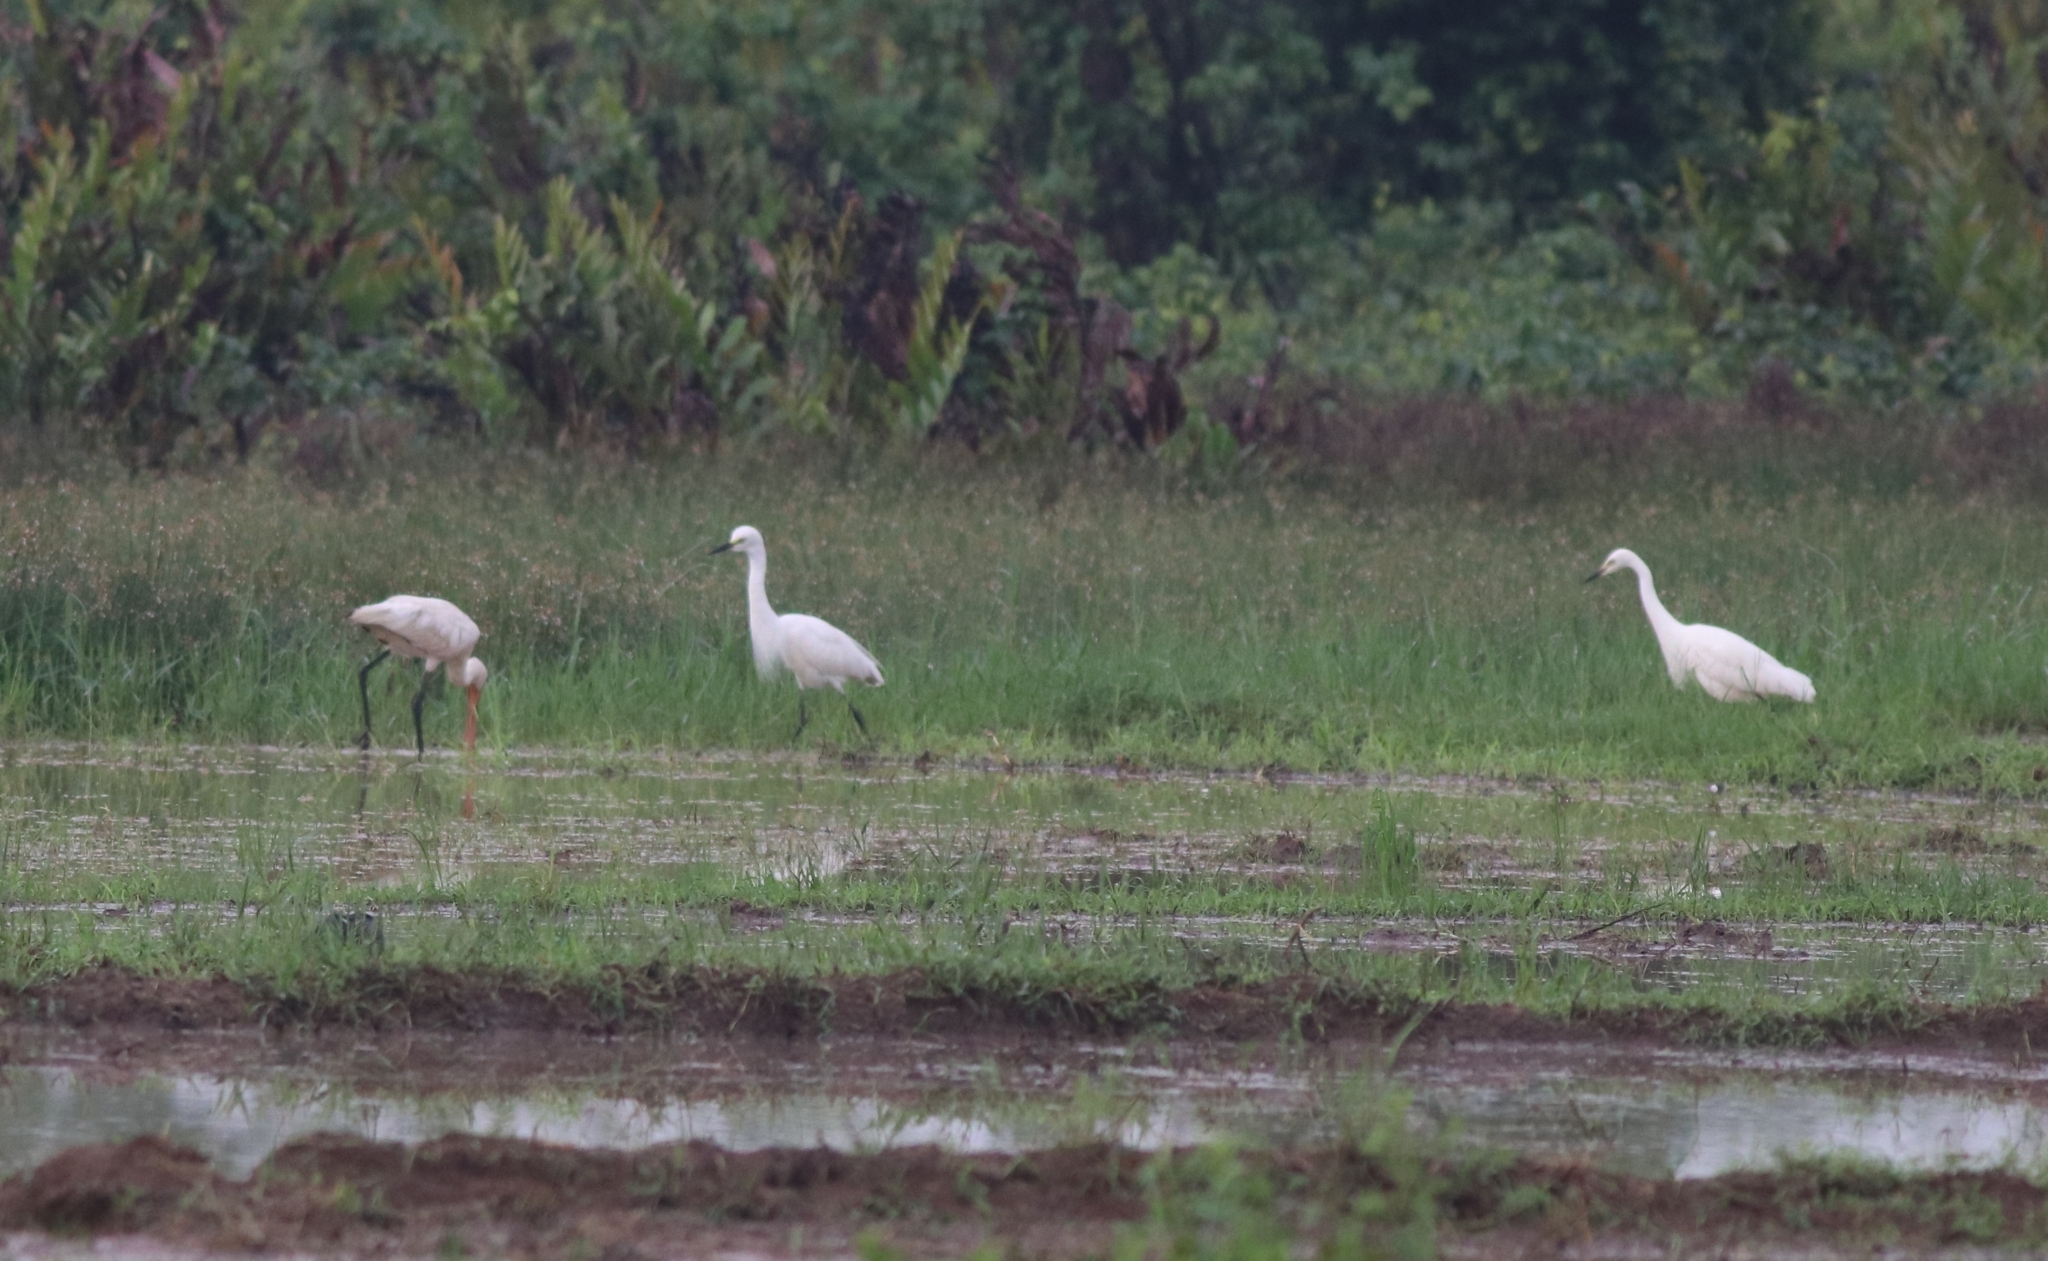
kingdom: Animalia
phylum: Chordata
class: Aves
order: Pelecaniformes
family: Ardeidae
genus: Egretta
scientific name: Egretta intermedia
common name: Intermediate egret
